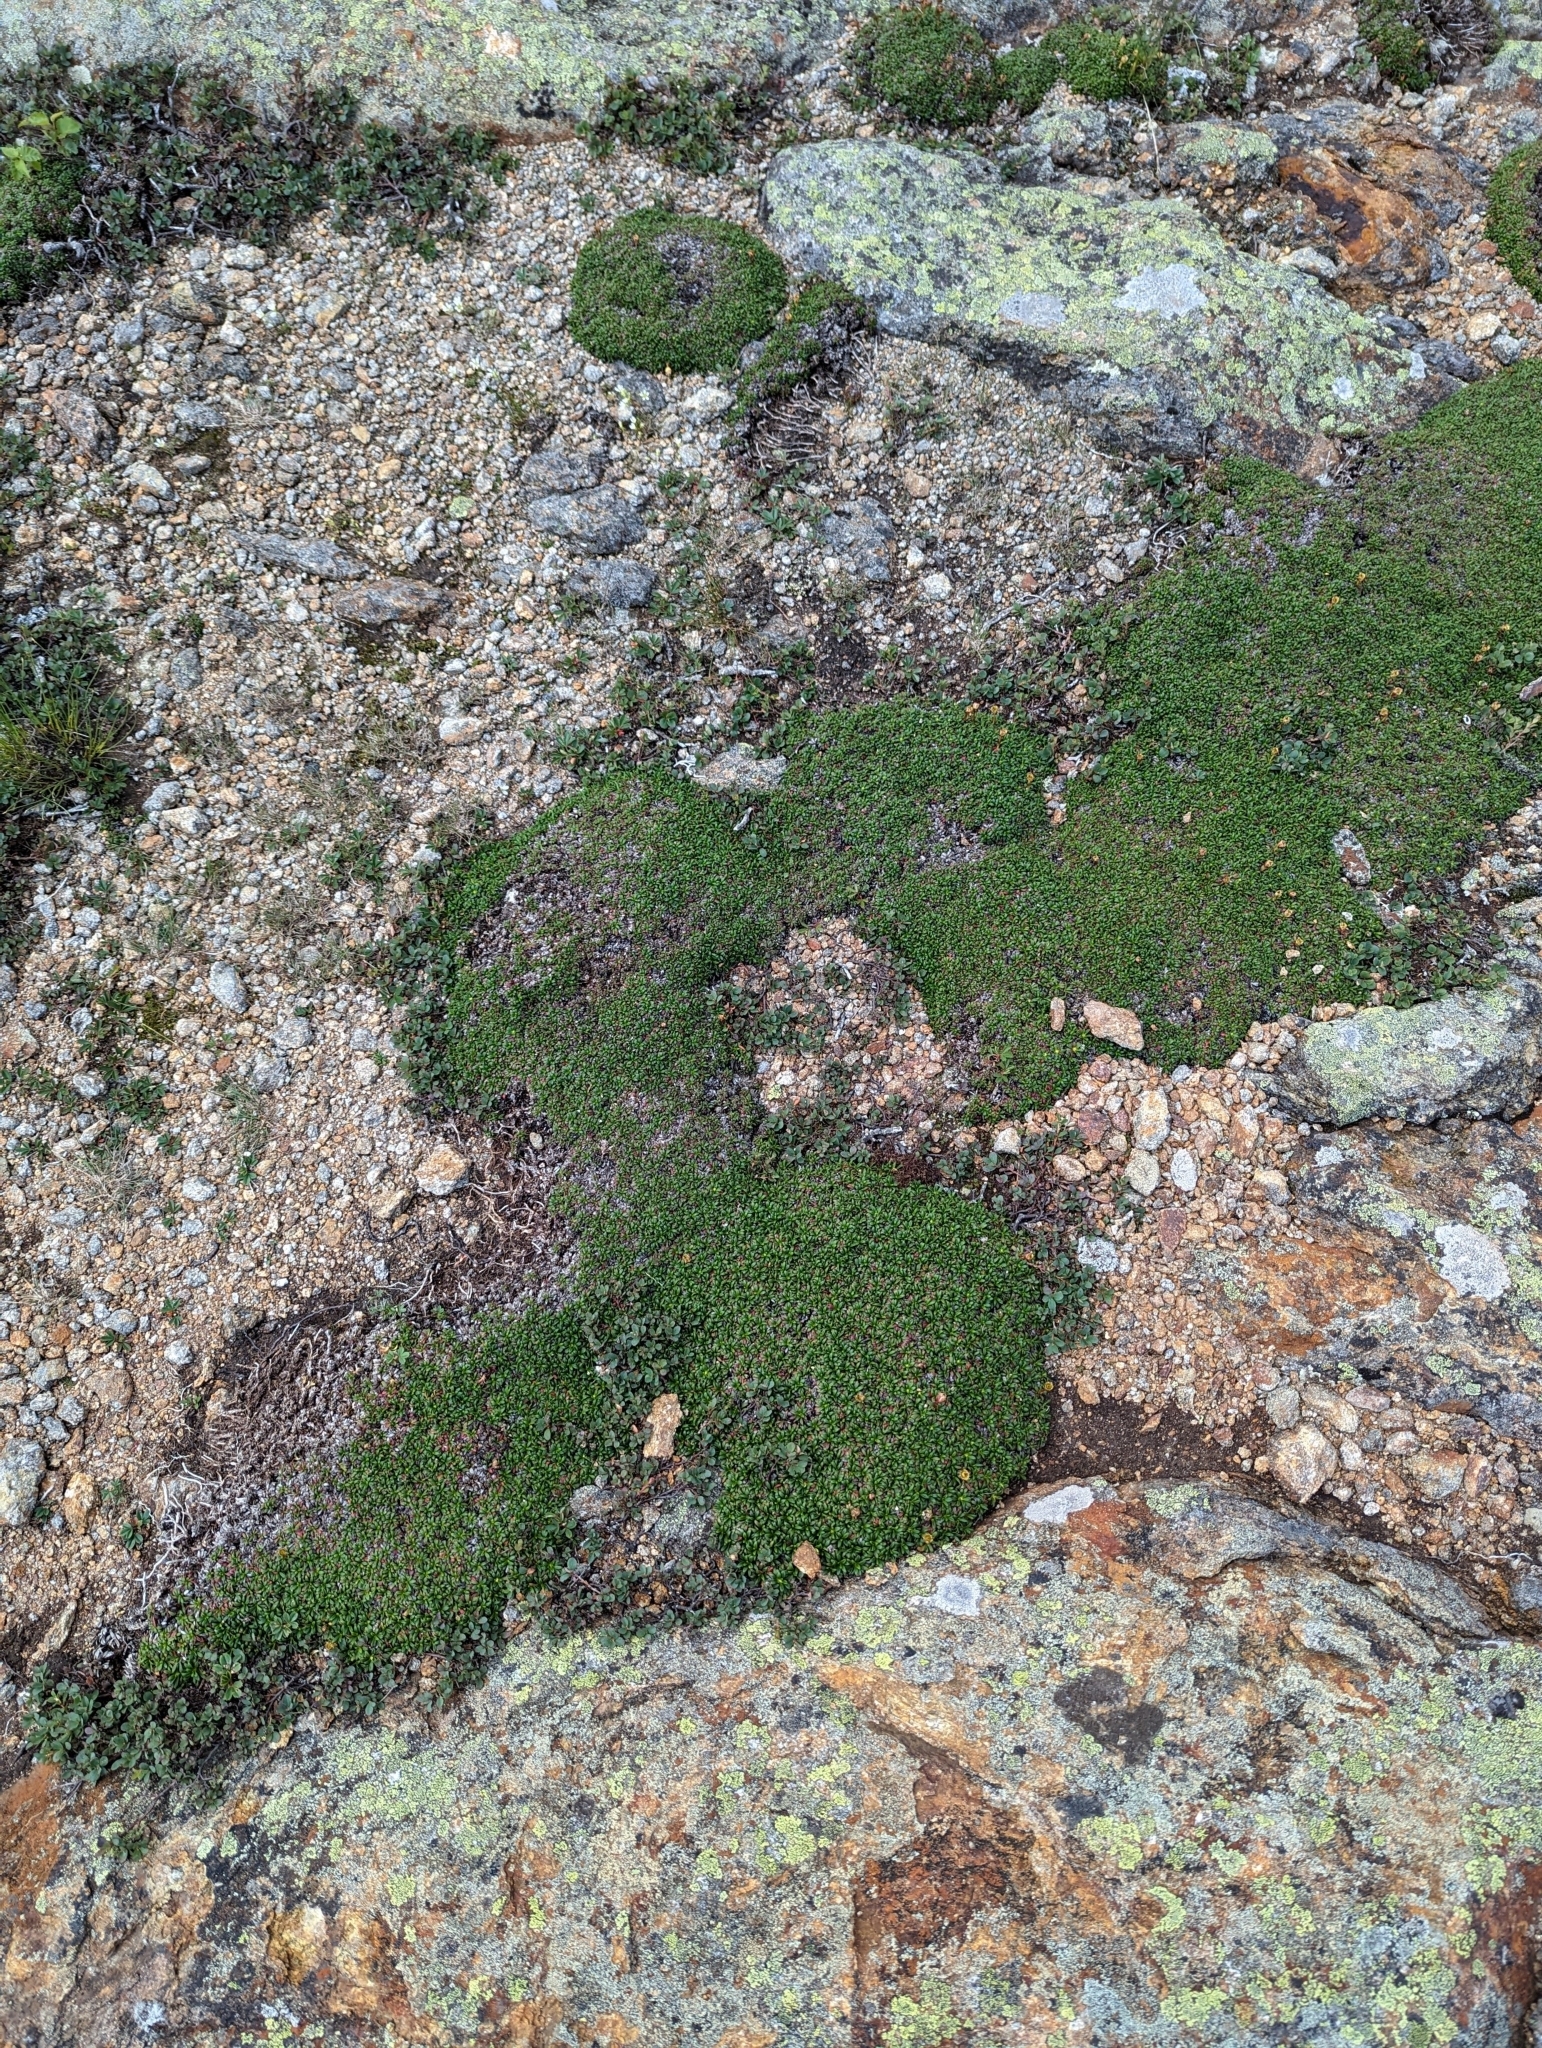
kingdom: Plantae
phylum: Tracheophyta
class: Magnoliopsida
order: Ericales
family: Diapensiaceae
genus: Diapensia
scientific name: Diapensia lapponica
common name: Diapensia
